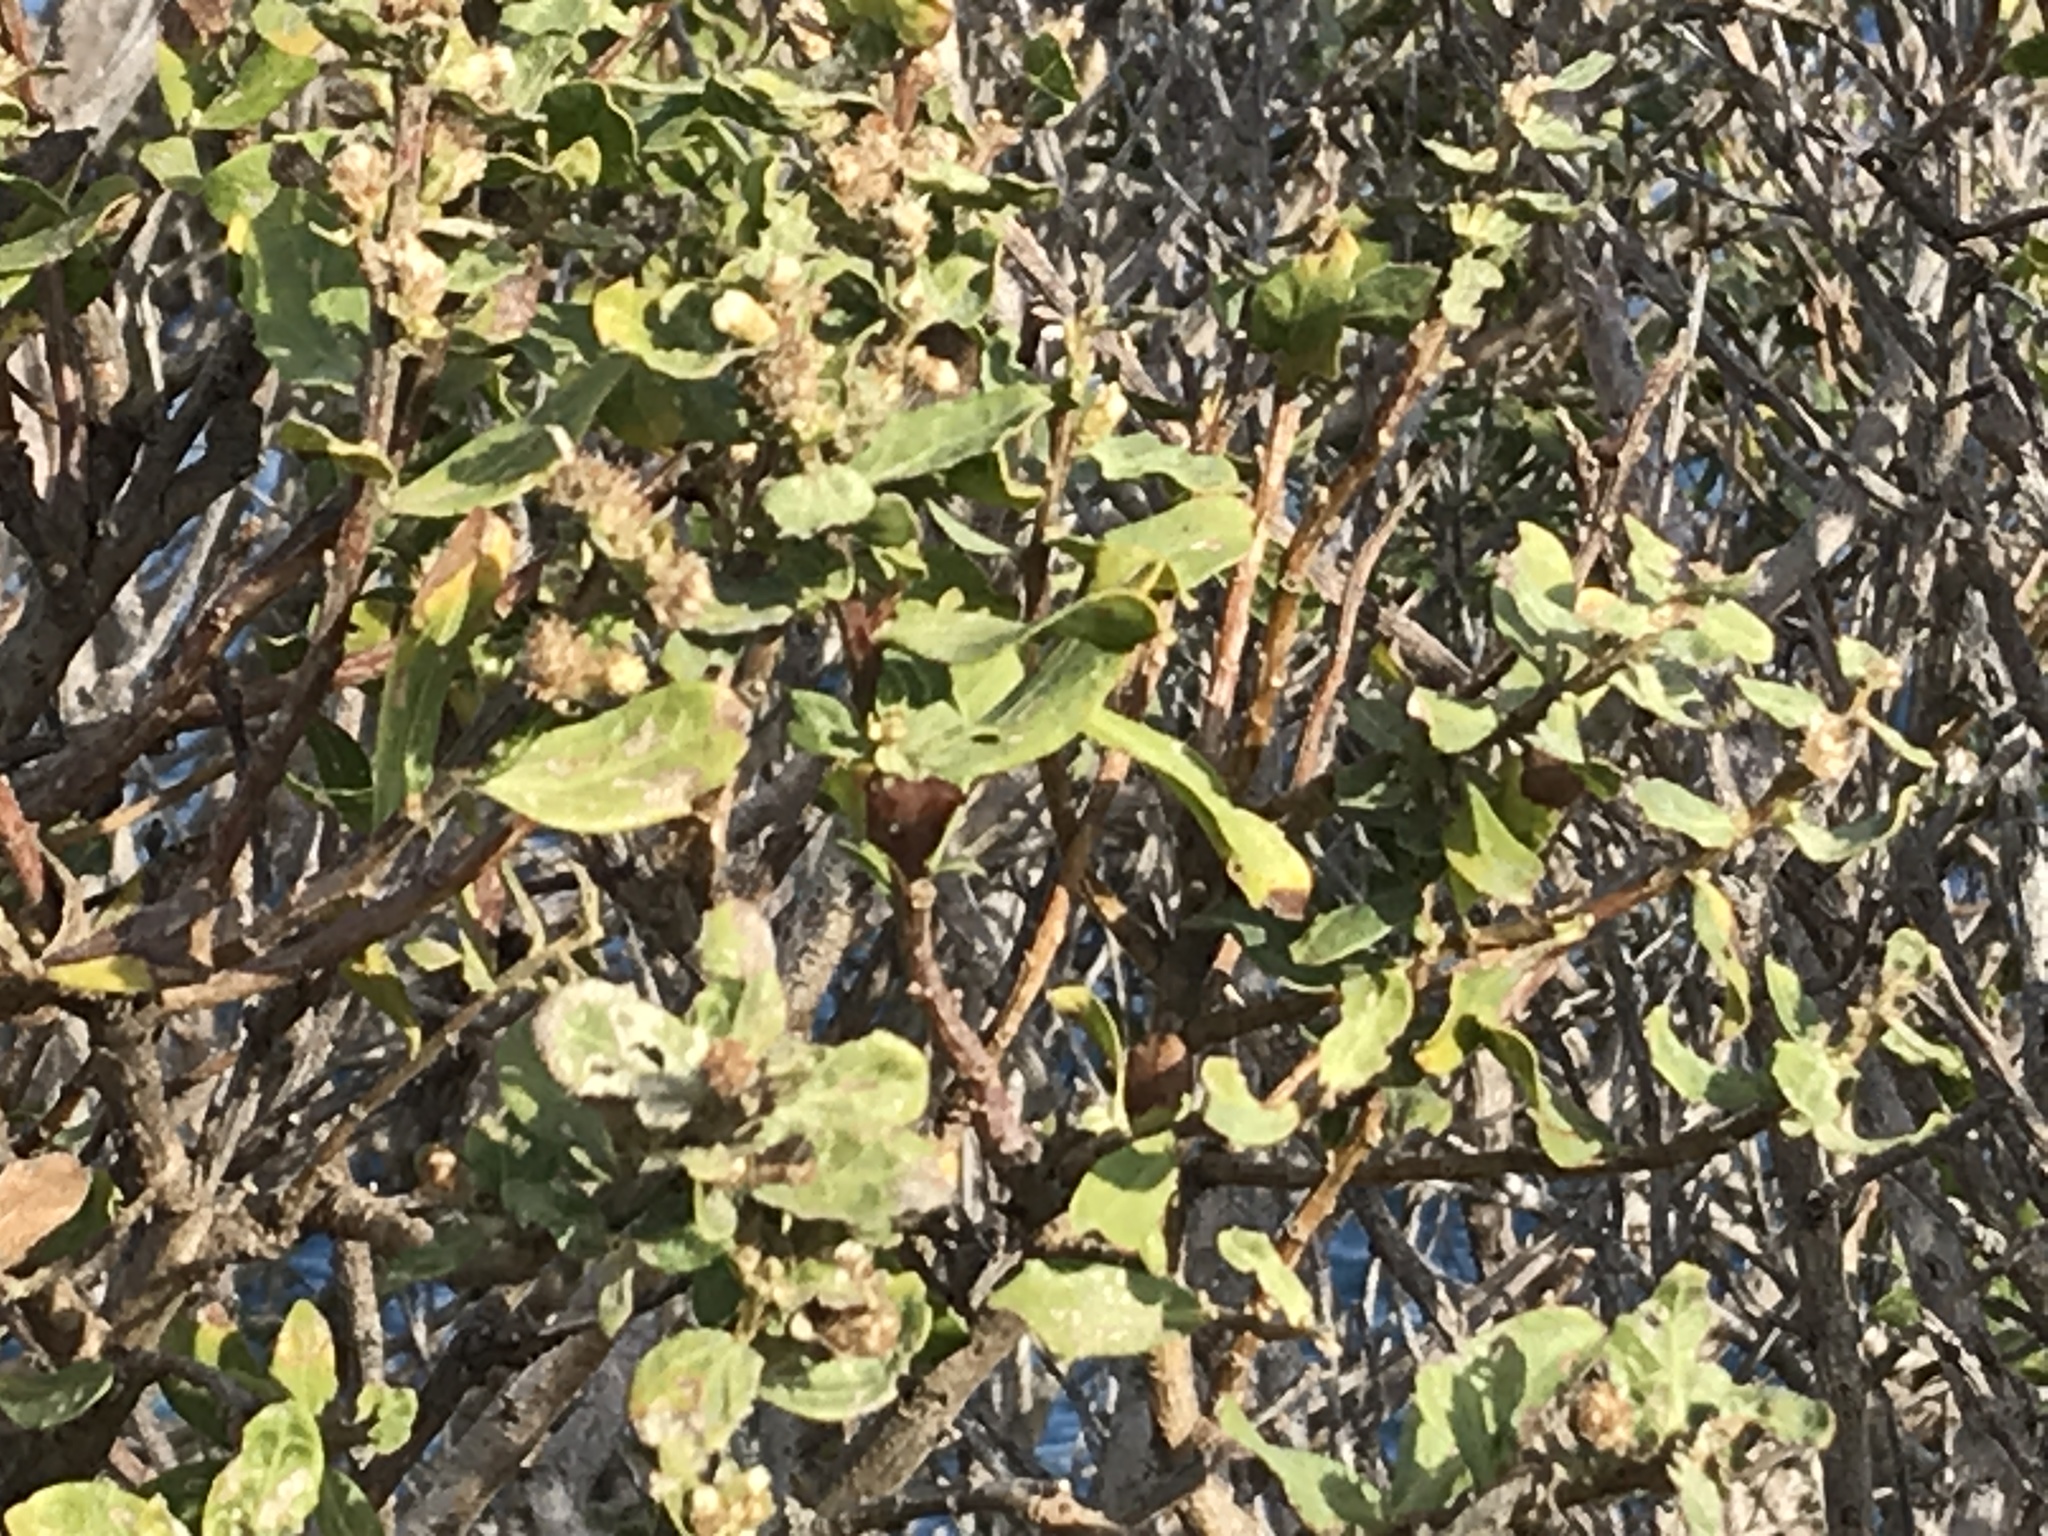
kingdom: Plantae
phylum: Tracheophyta
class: Magnoliopsida
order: Asterales
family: Asteraceae
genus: Baccharis
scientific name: Baccharis pilularis
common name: Coyotebrush
